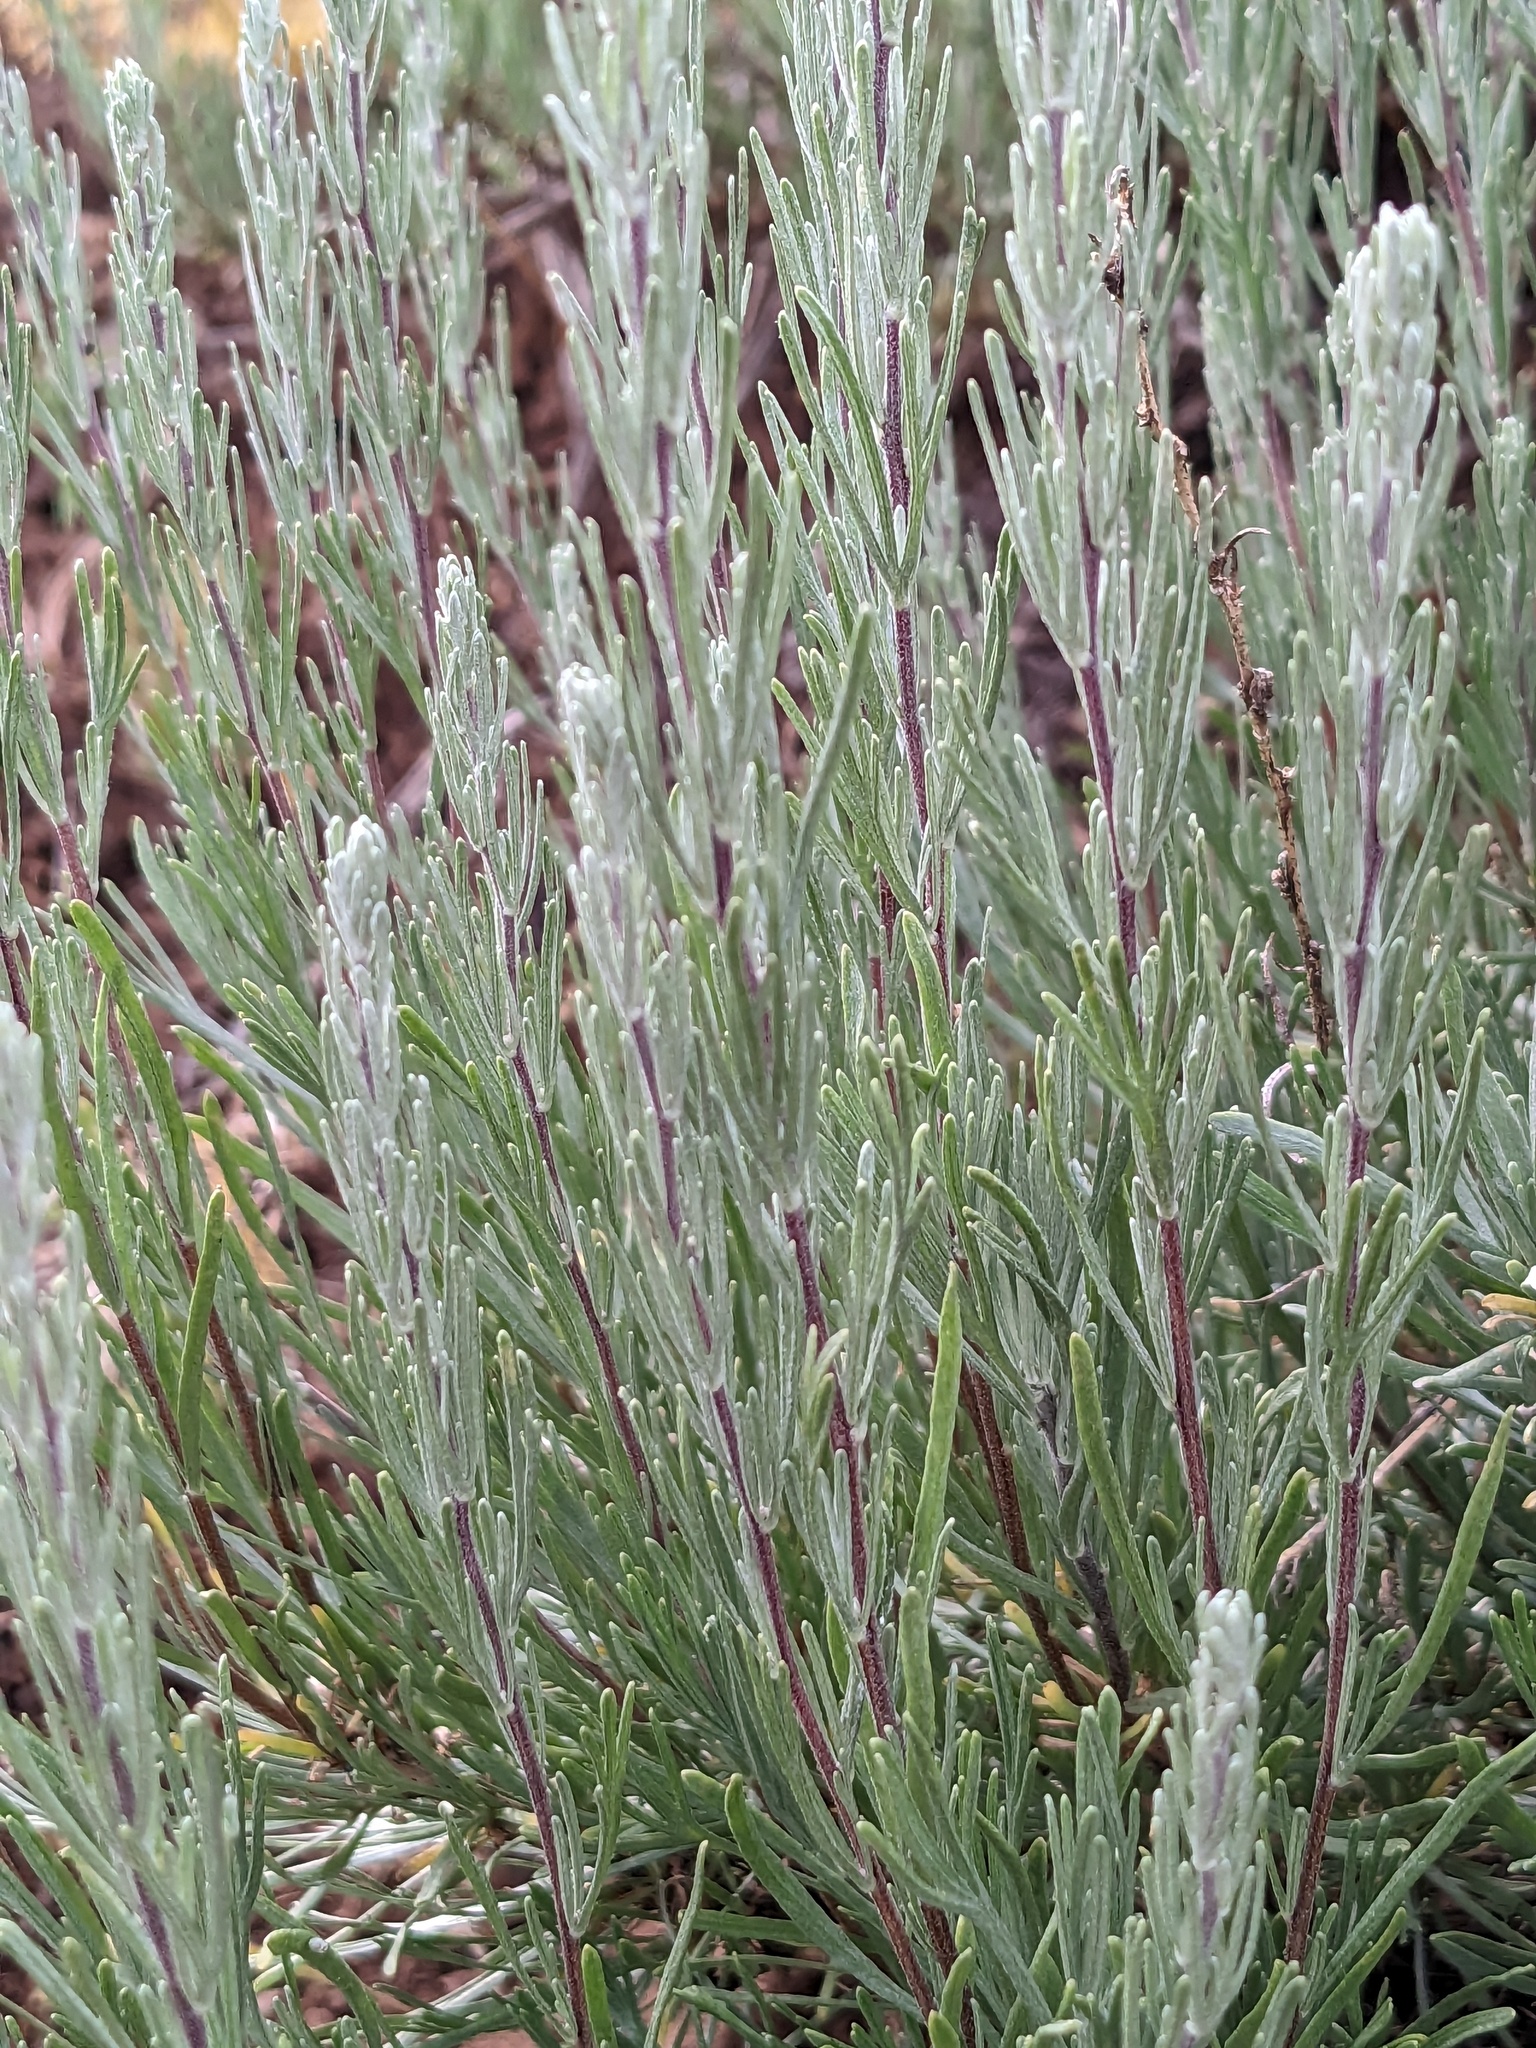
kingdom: Plantae
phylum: Tracheophyta
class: Magnoliopsida
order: Asterales
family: Asteraceae
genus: Artemisia
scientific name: Artemisia rigida
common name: Scabland sagebrush
